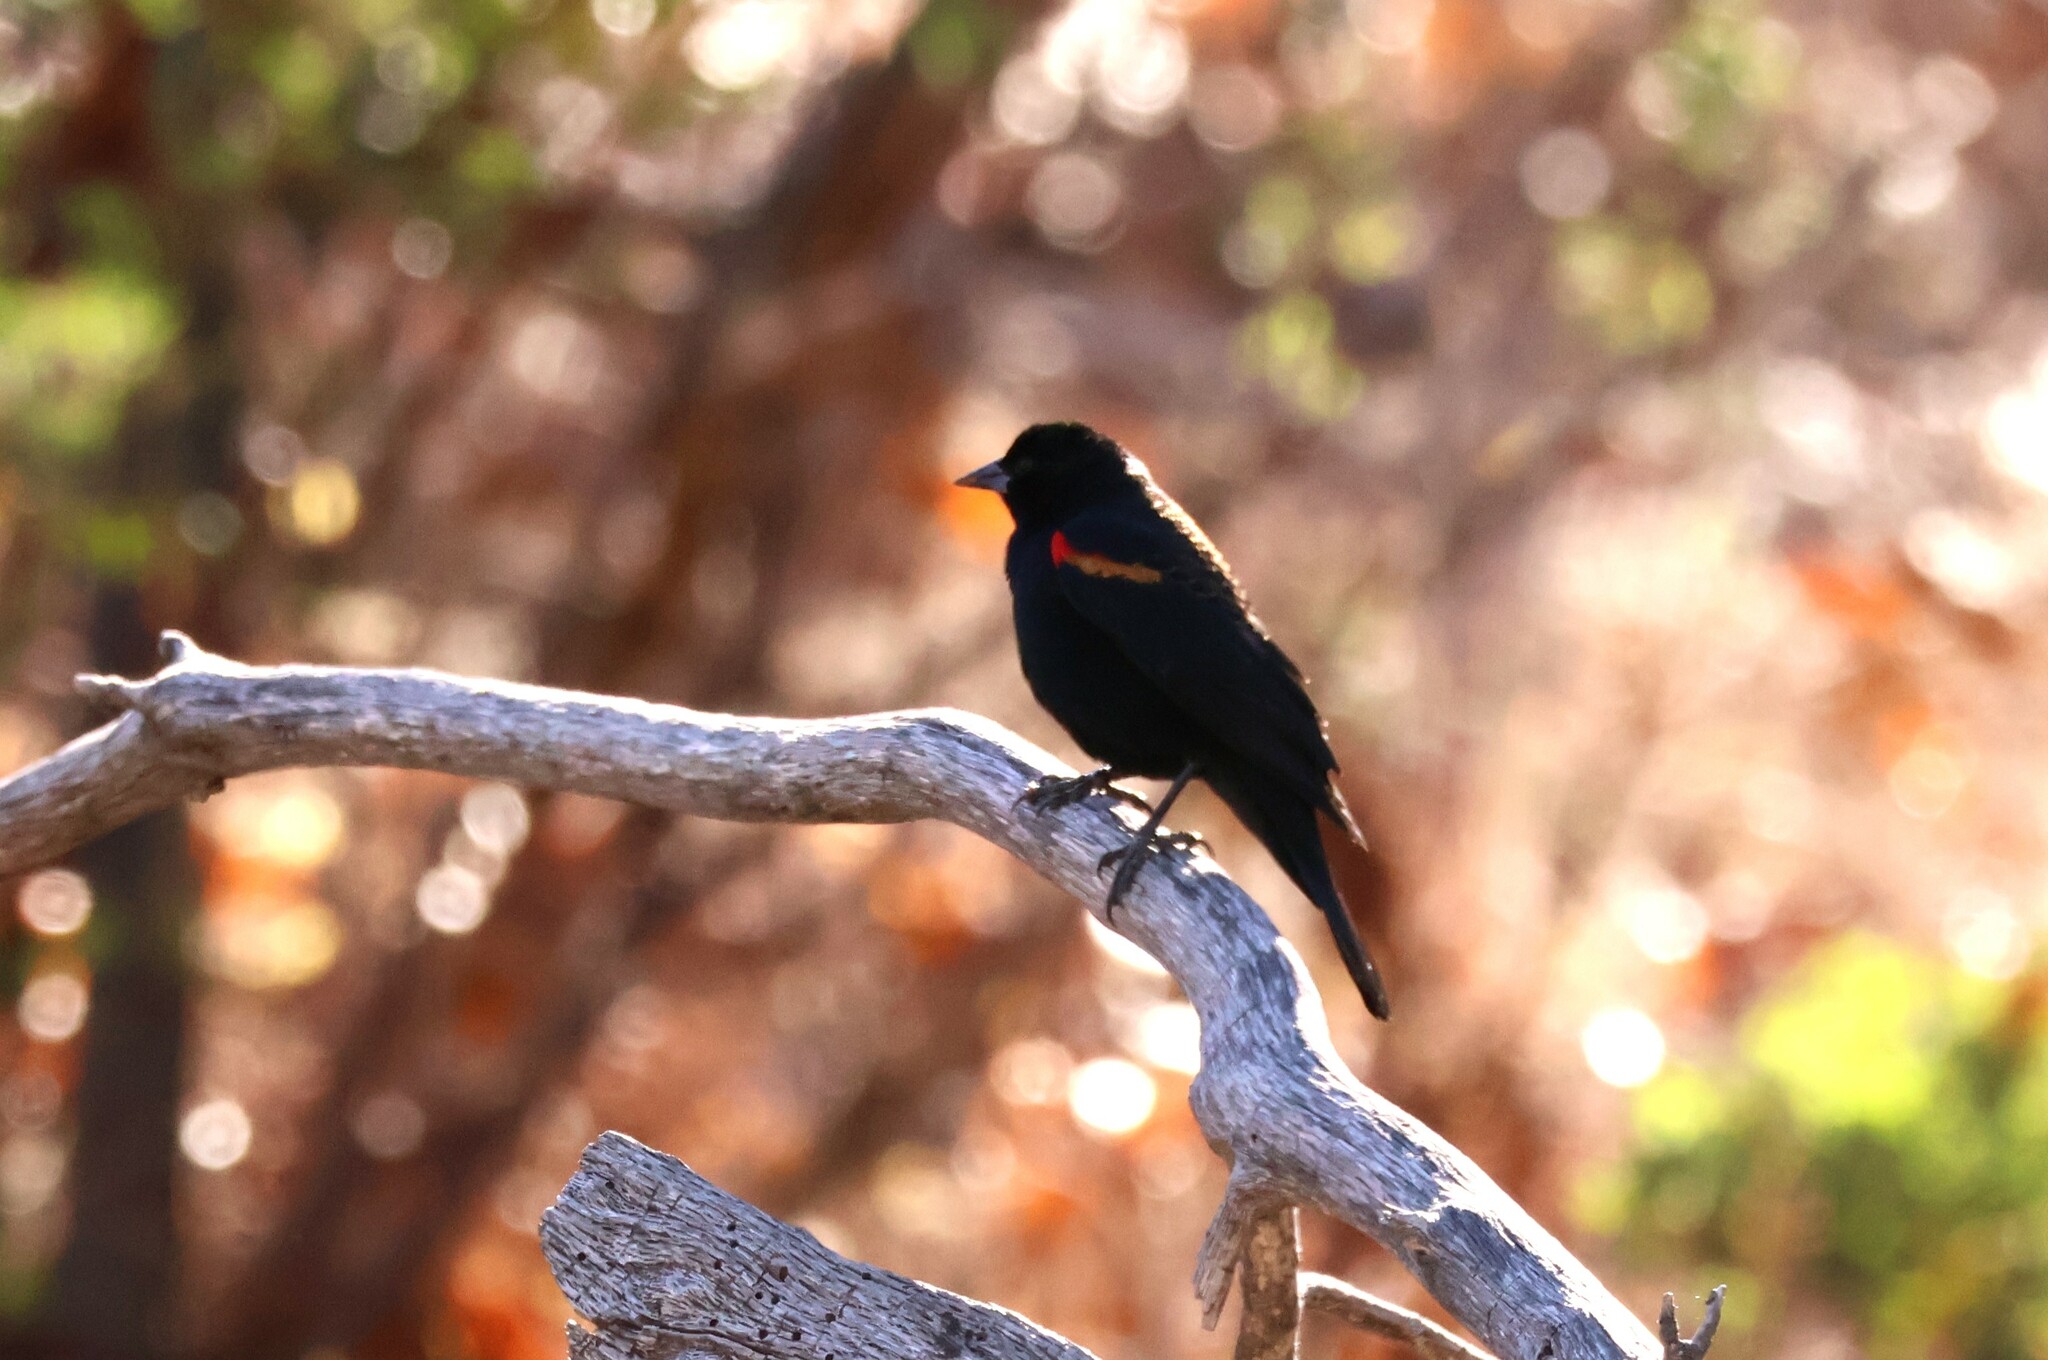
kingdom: Animalia
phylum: Chordata
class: Aves
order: Passeriformes
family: Icteridae
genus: Agelaius
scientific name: Agelaius phoeniceus
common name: Red-winged blackbird
